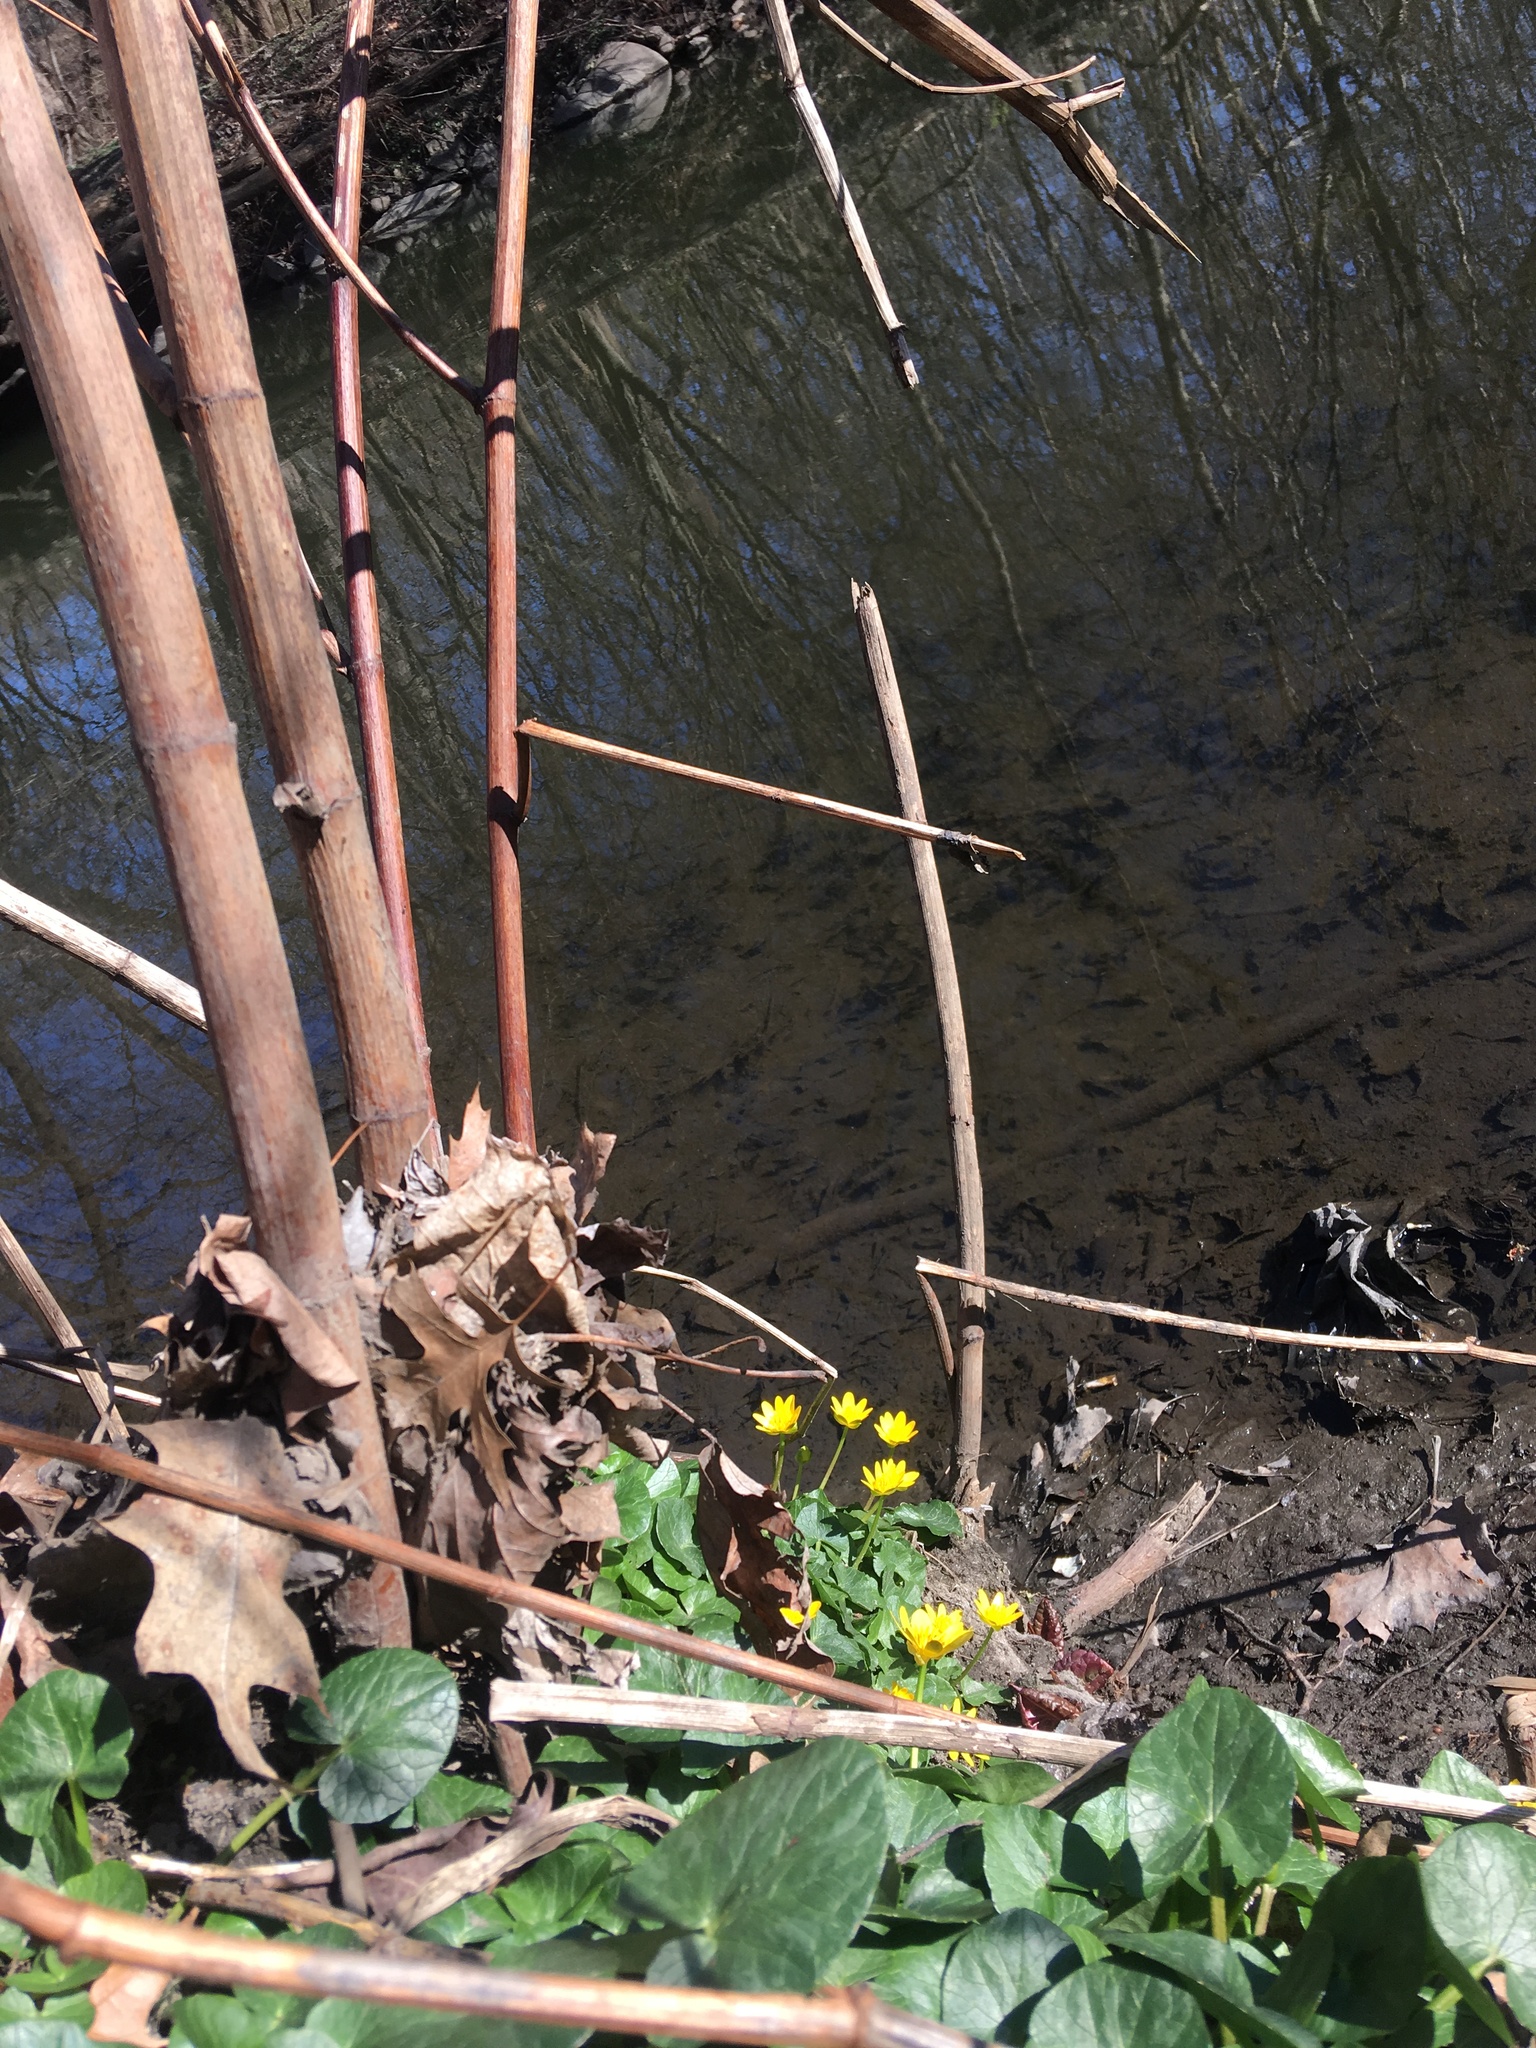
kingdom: Plantae
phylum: Tracheophyta
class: Magnoliopsida
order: Ranunculales
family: Ranunculaceae
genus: Ficaria
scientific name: Ficaria verna
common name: Lesser celandine
